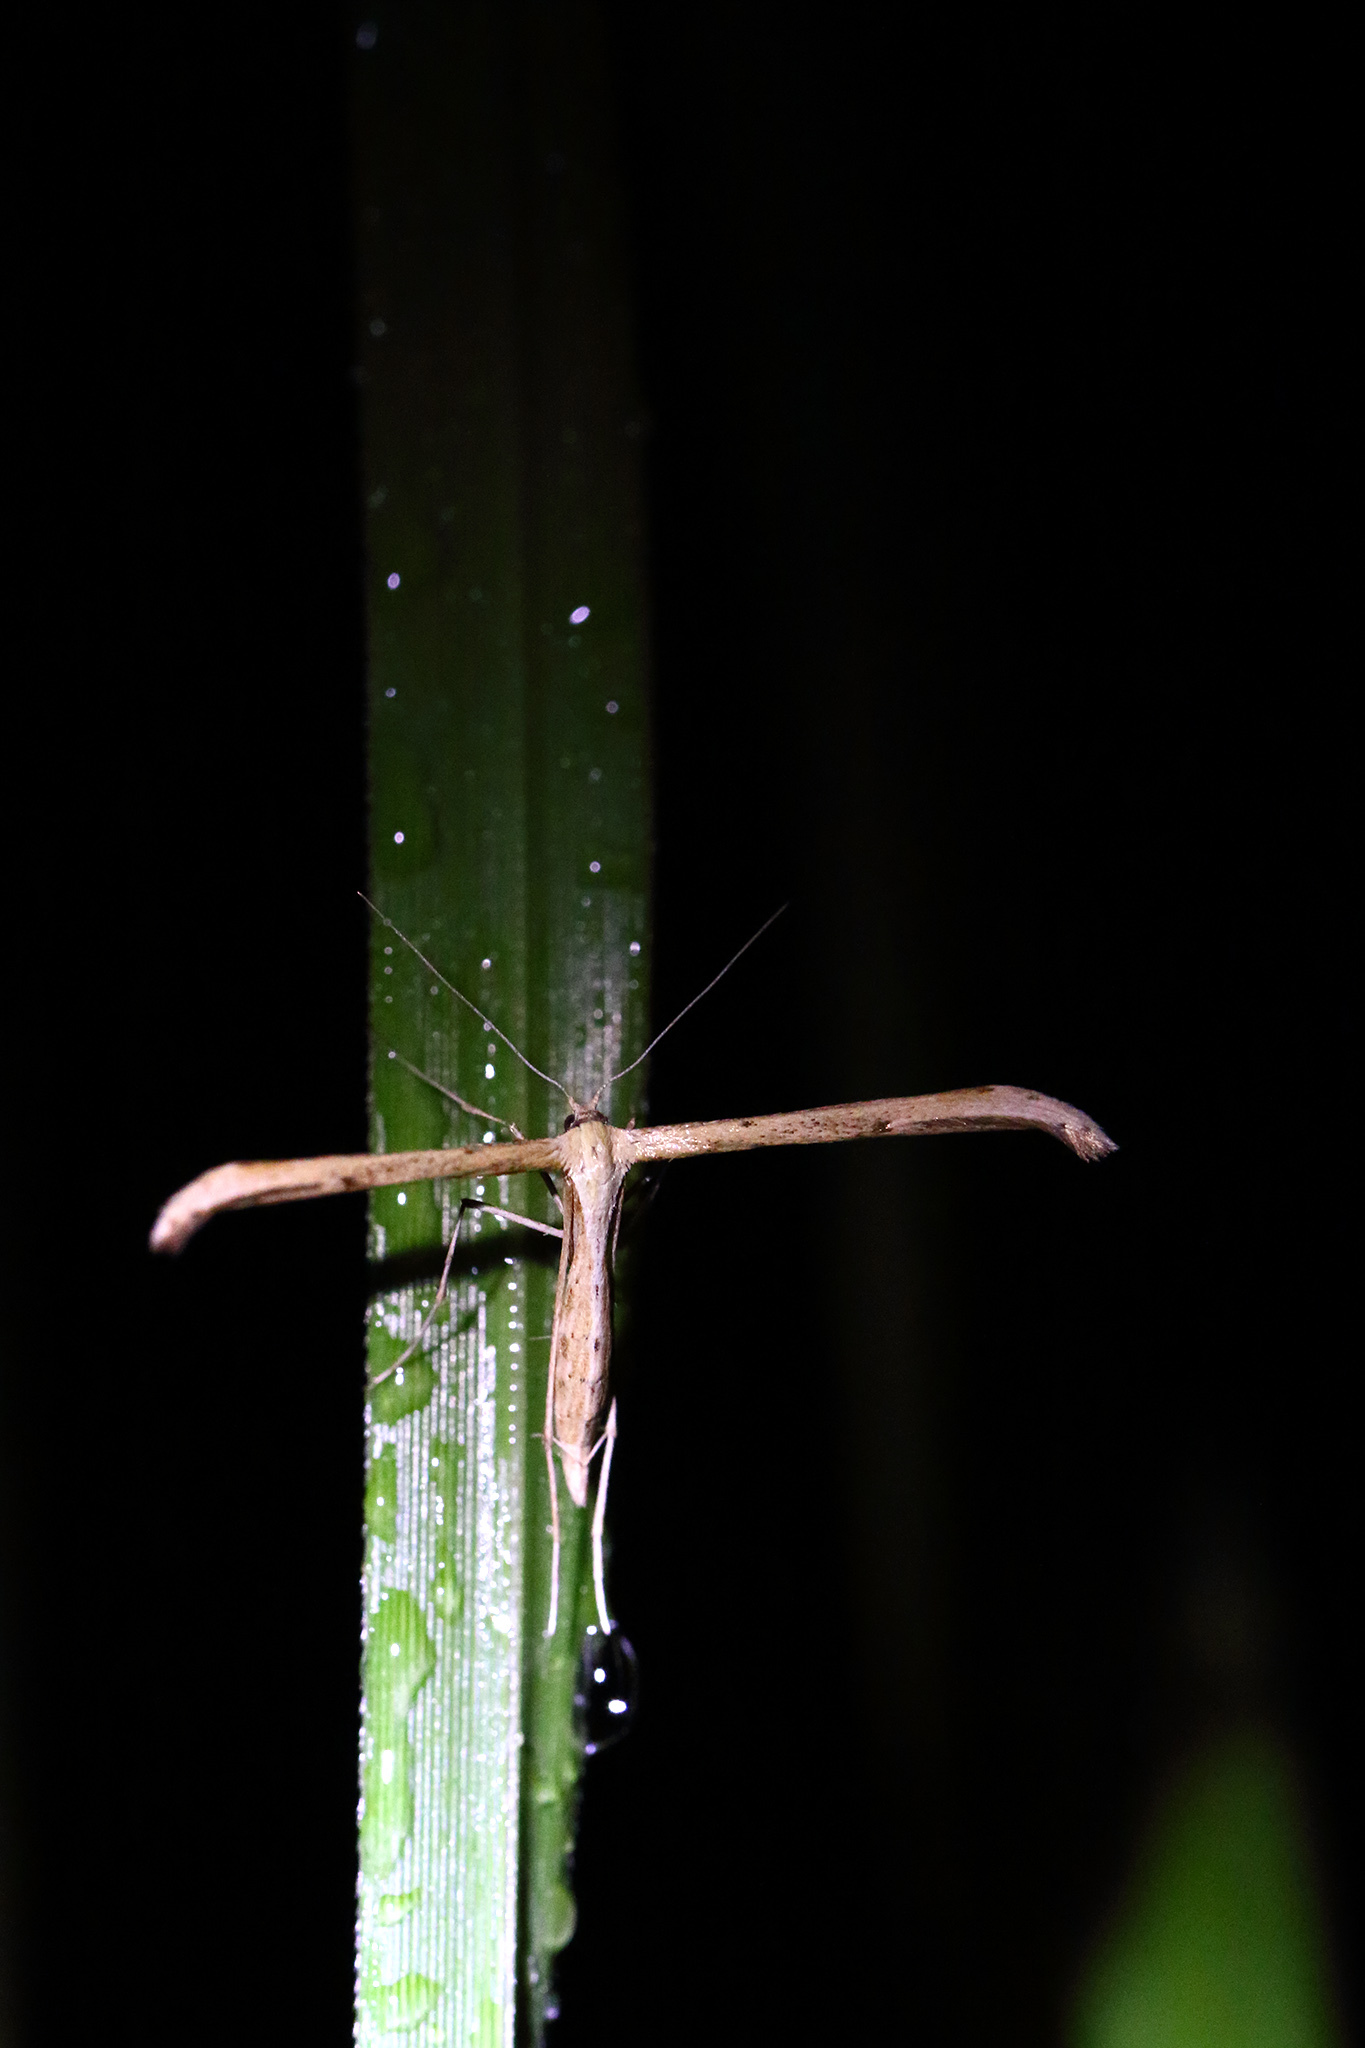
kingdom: Animalia
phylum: Arthropoda
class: Insecta
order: Lepidoptera
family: Pterophoridae
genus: Emmelina
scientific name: Emmelina monodactyla
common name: Common plume
